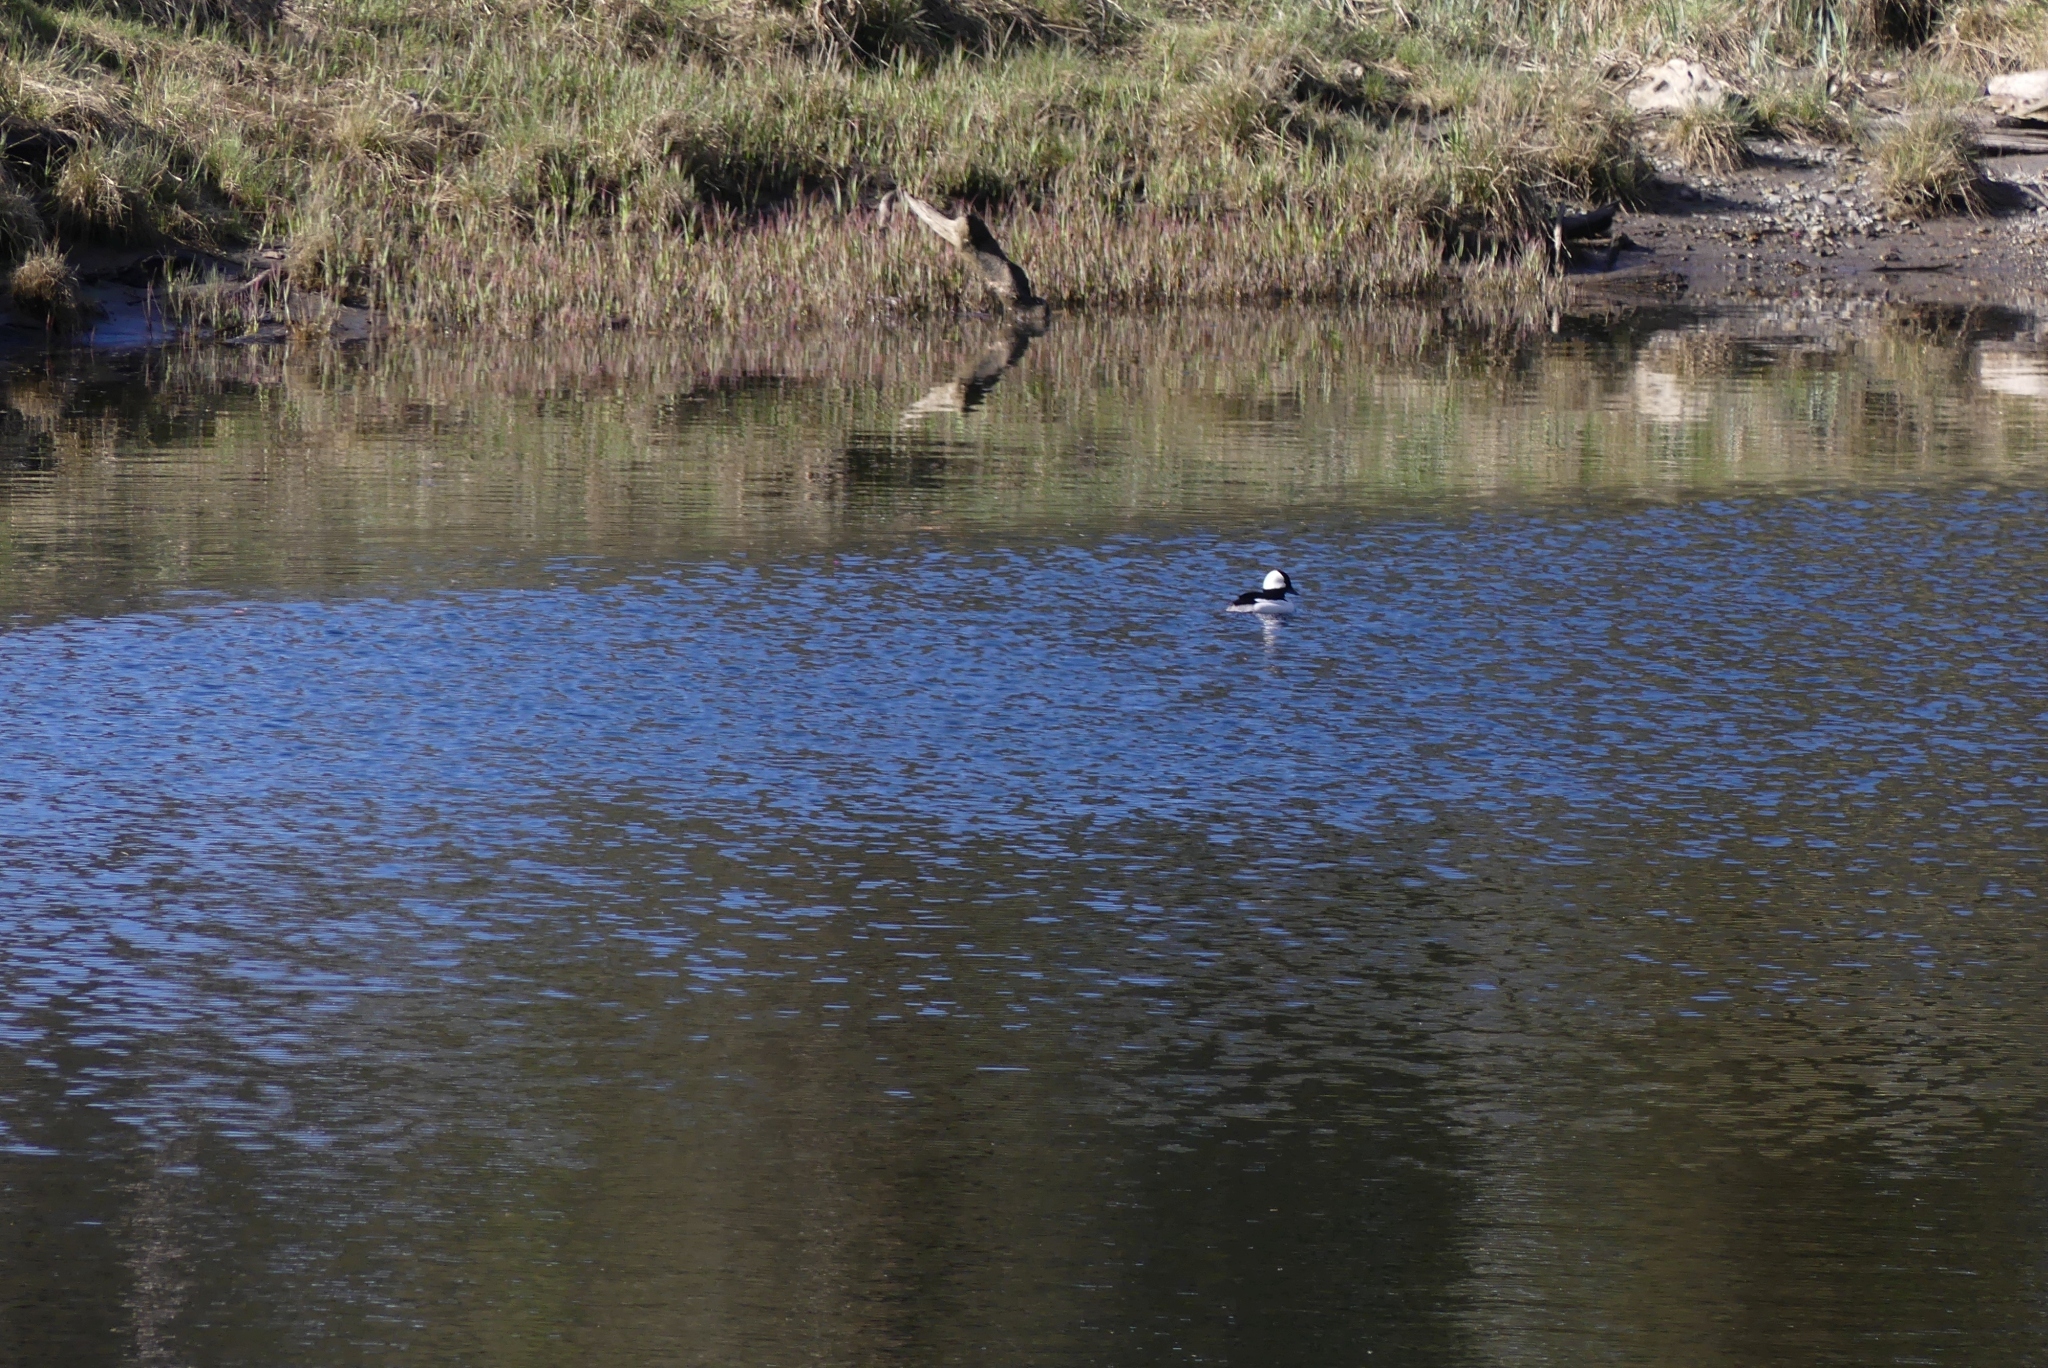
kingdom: Animalia
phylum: Chordata
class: Aves
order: Anseriformes
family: Anatidae
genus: Bucephala
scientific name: Bucephala albeola
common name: Bufflehead
